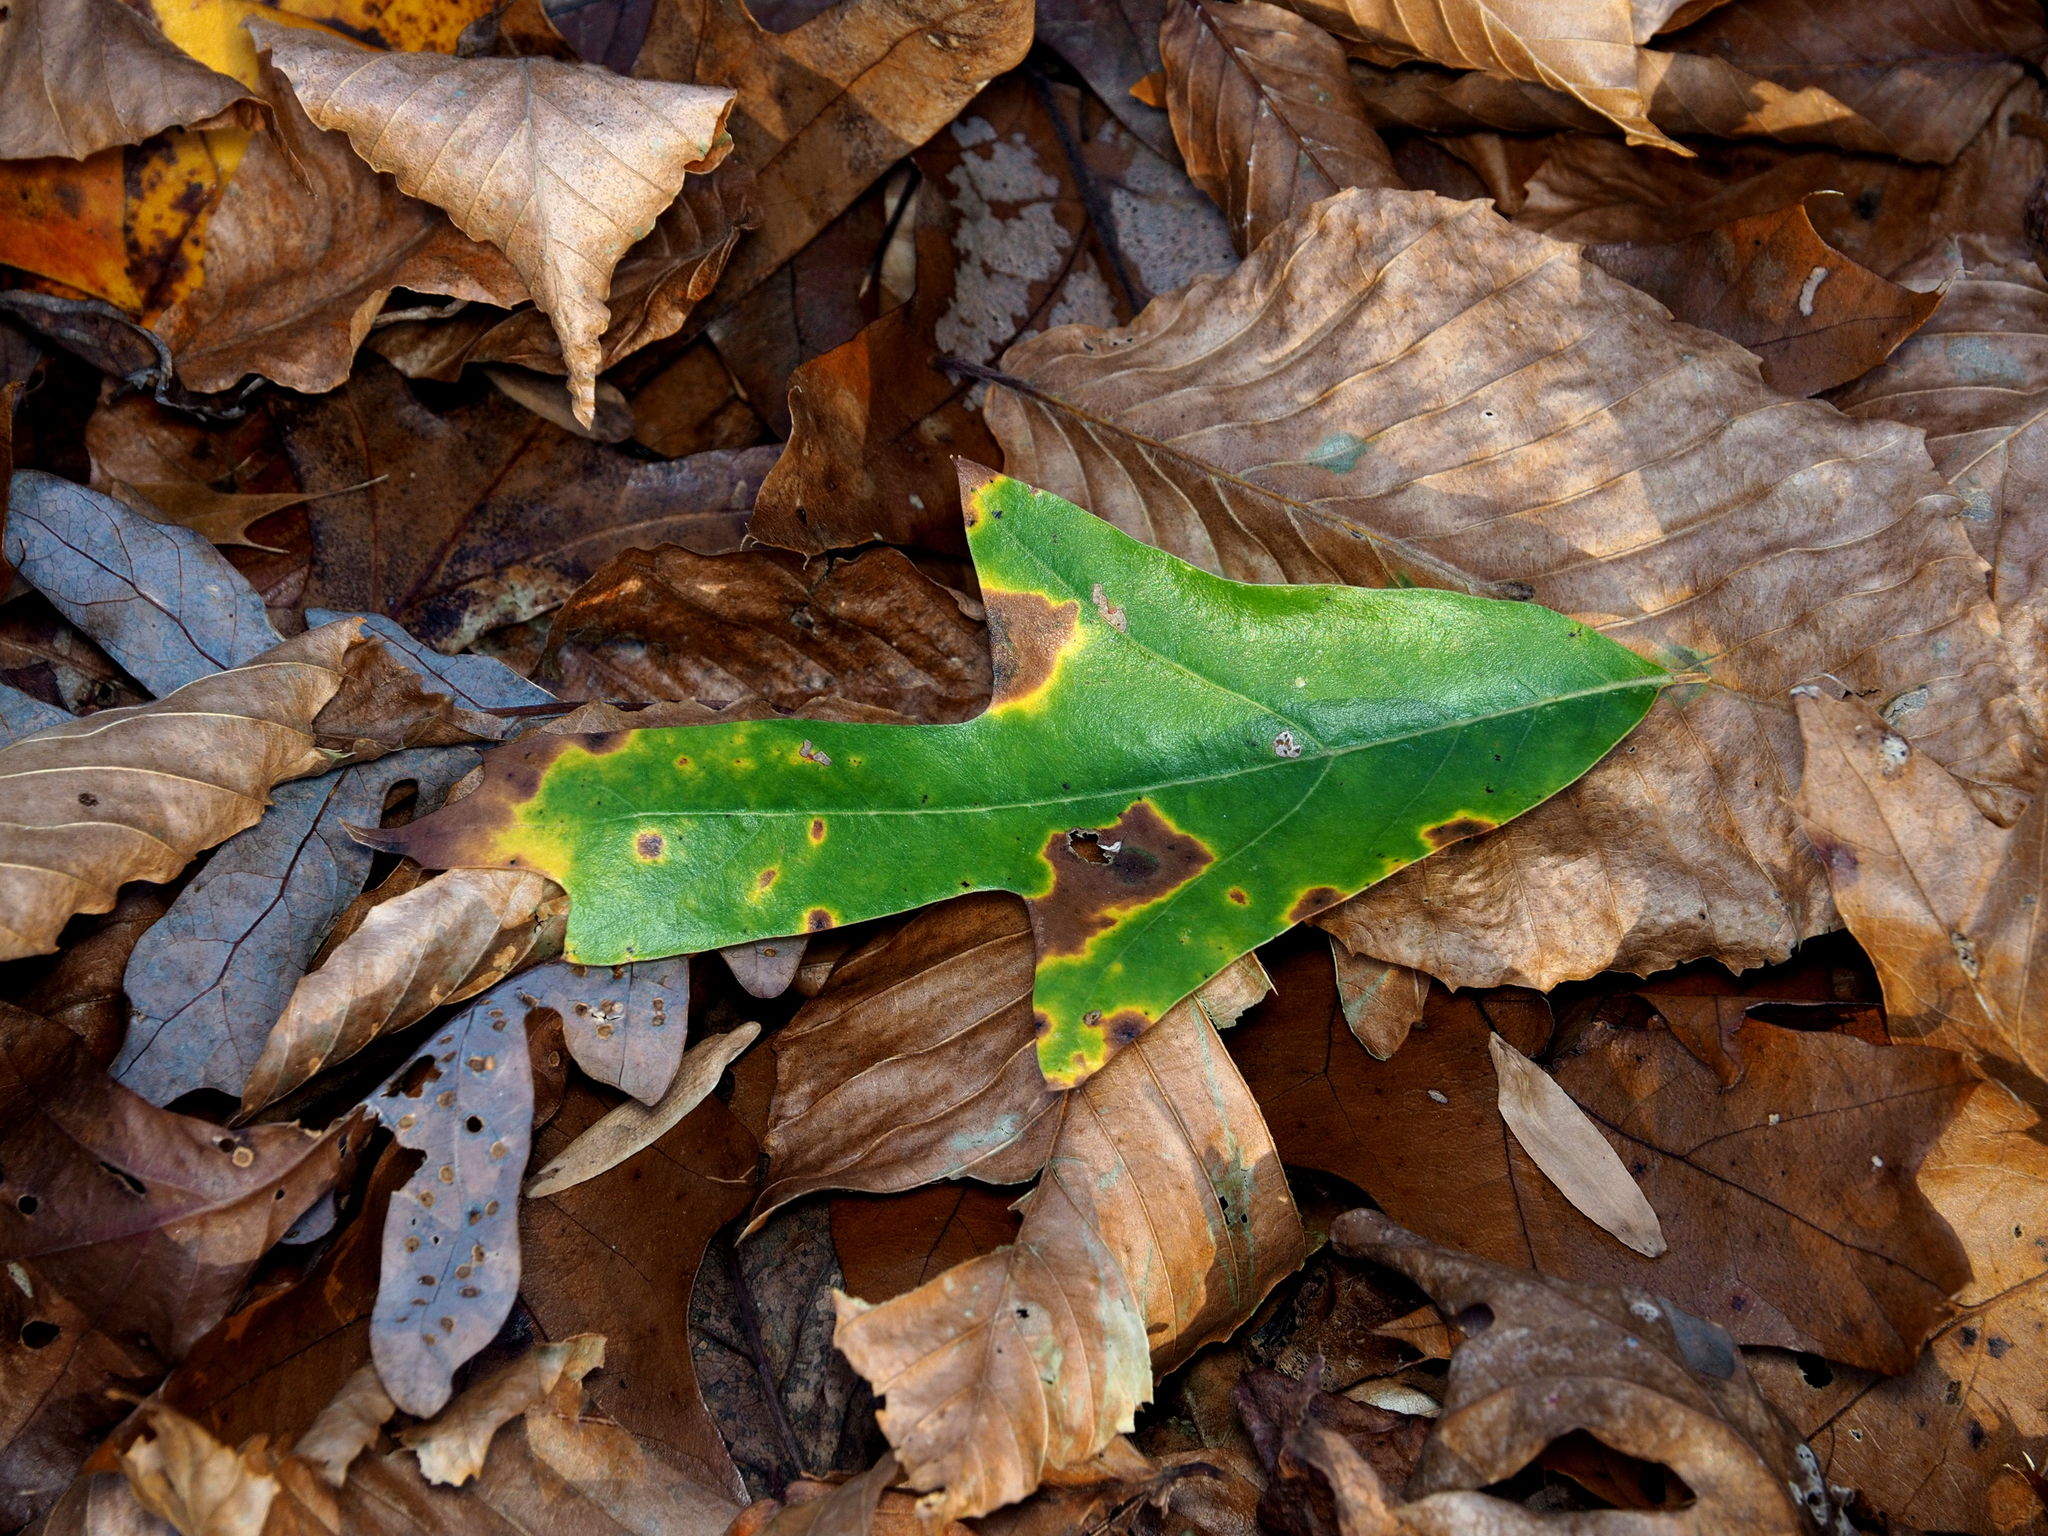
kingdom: Plantae
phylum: Tracheophyta
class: Magnoliopsida
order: Fagales
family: Fagaceae
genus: Quercus
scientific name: Quercus falcata
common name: Southern red oak
